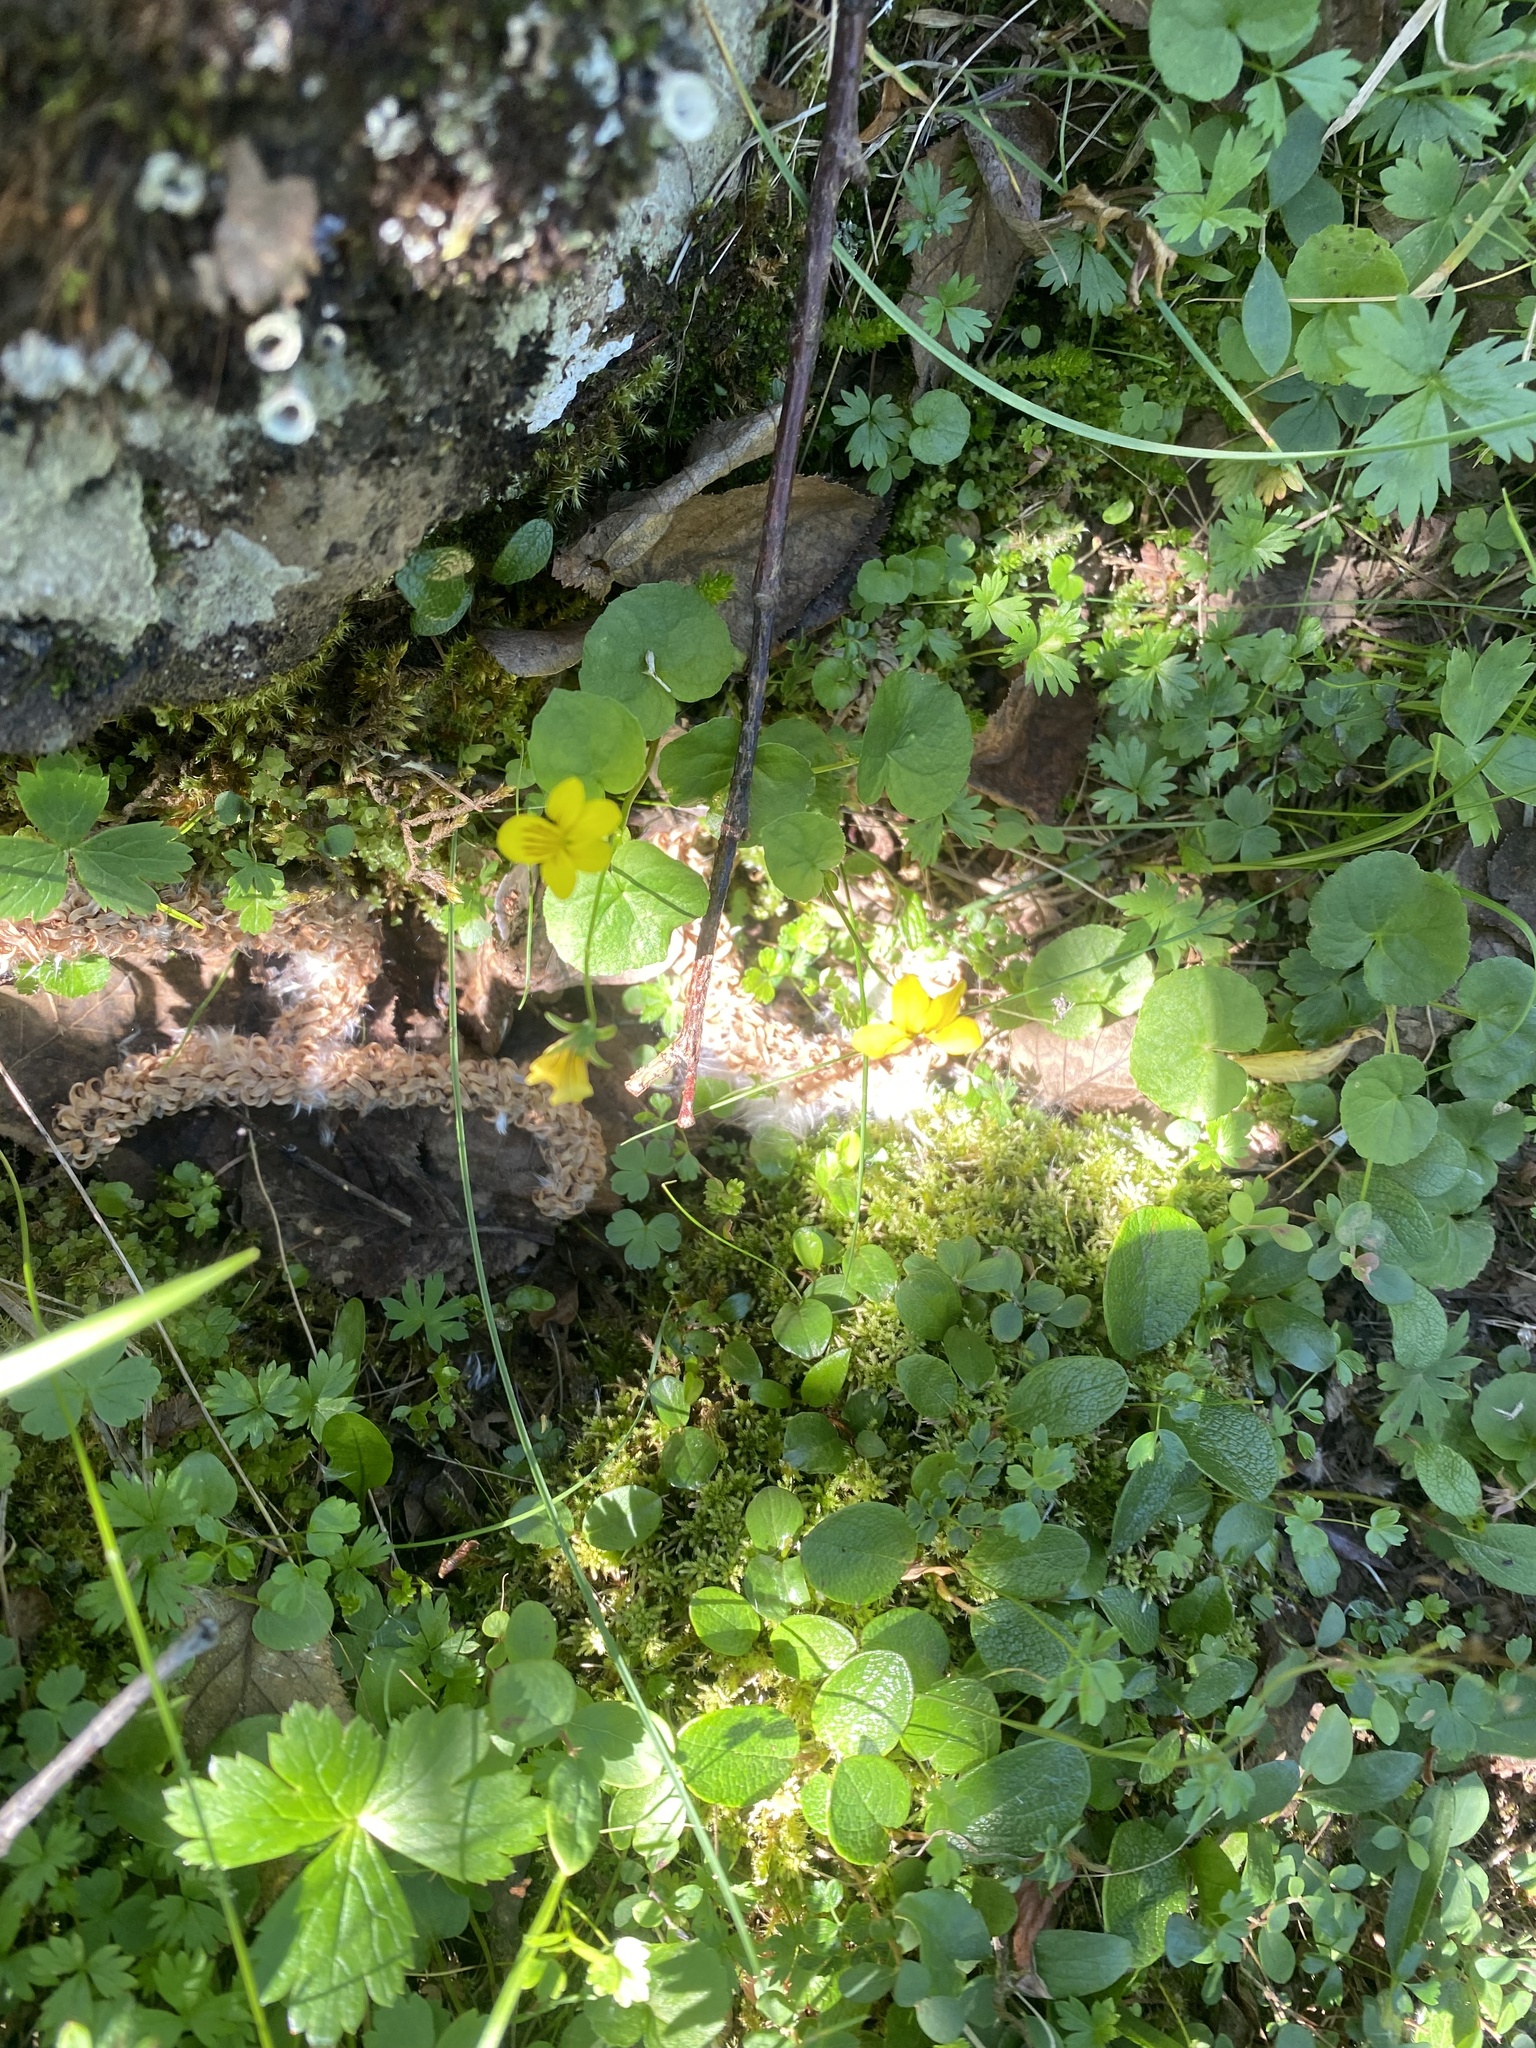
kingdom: Plantae
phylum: Tracheophyta
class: Magnoliopsida
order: Malpighiales
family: Violaceae
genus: Viola
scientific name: Viola biflora
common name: Alpine yellow violet
